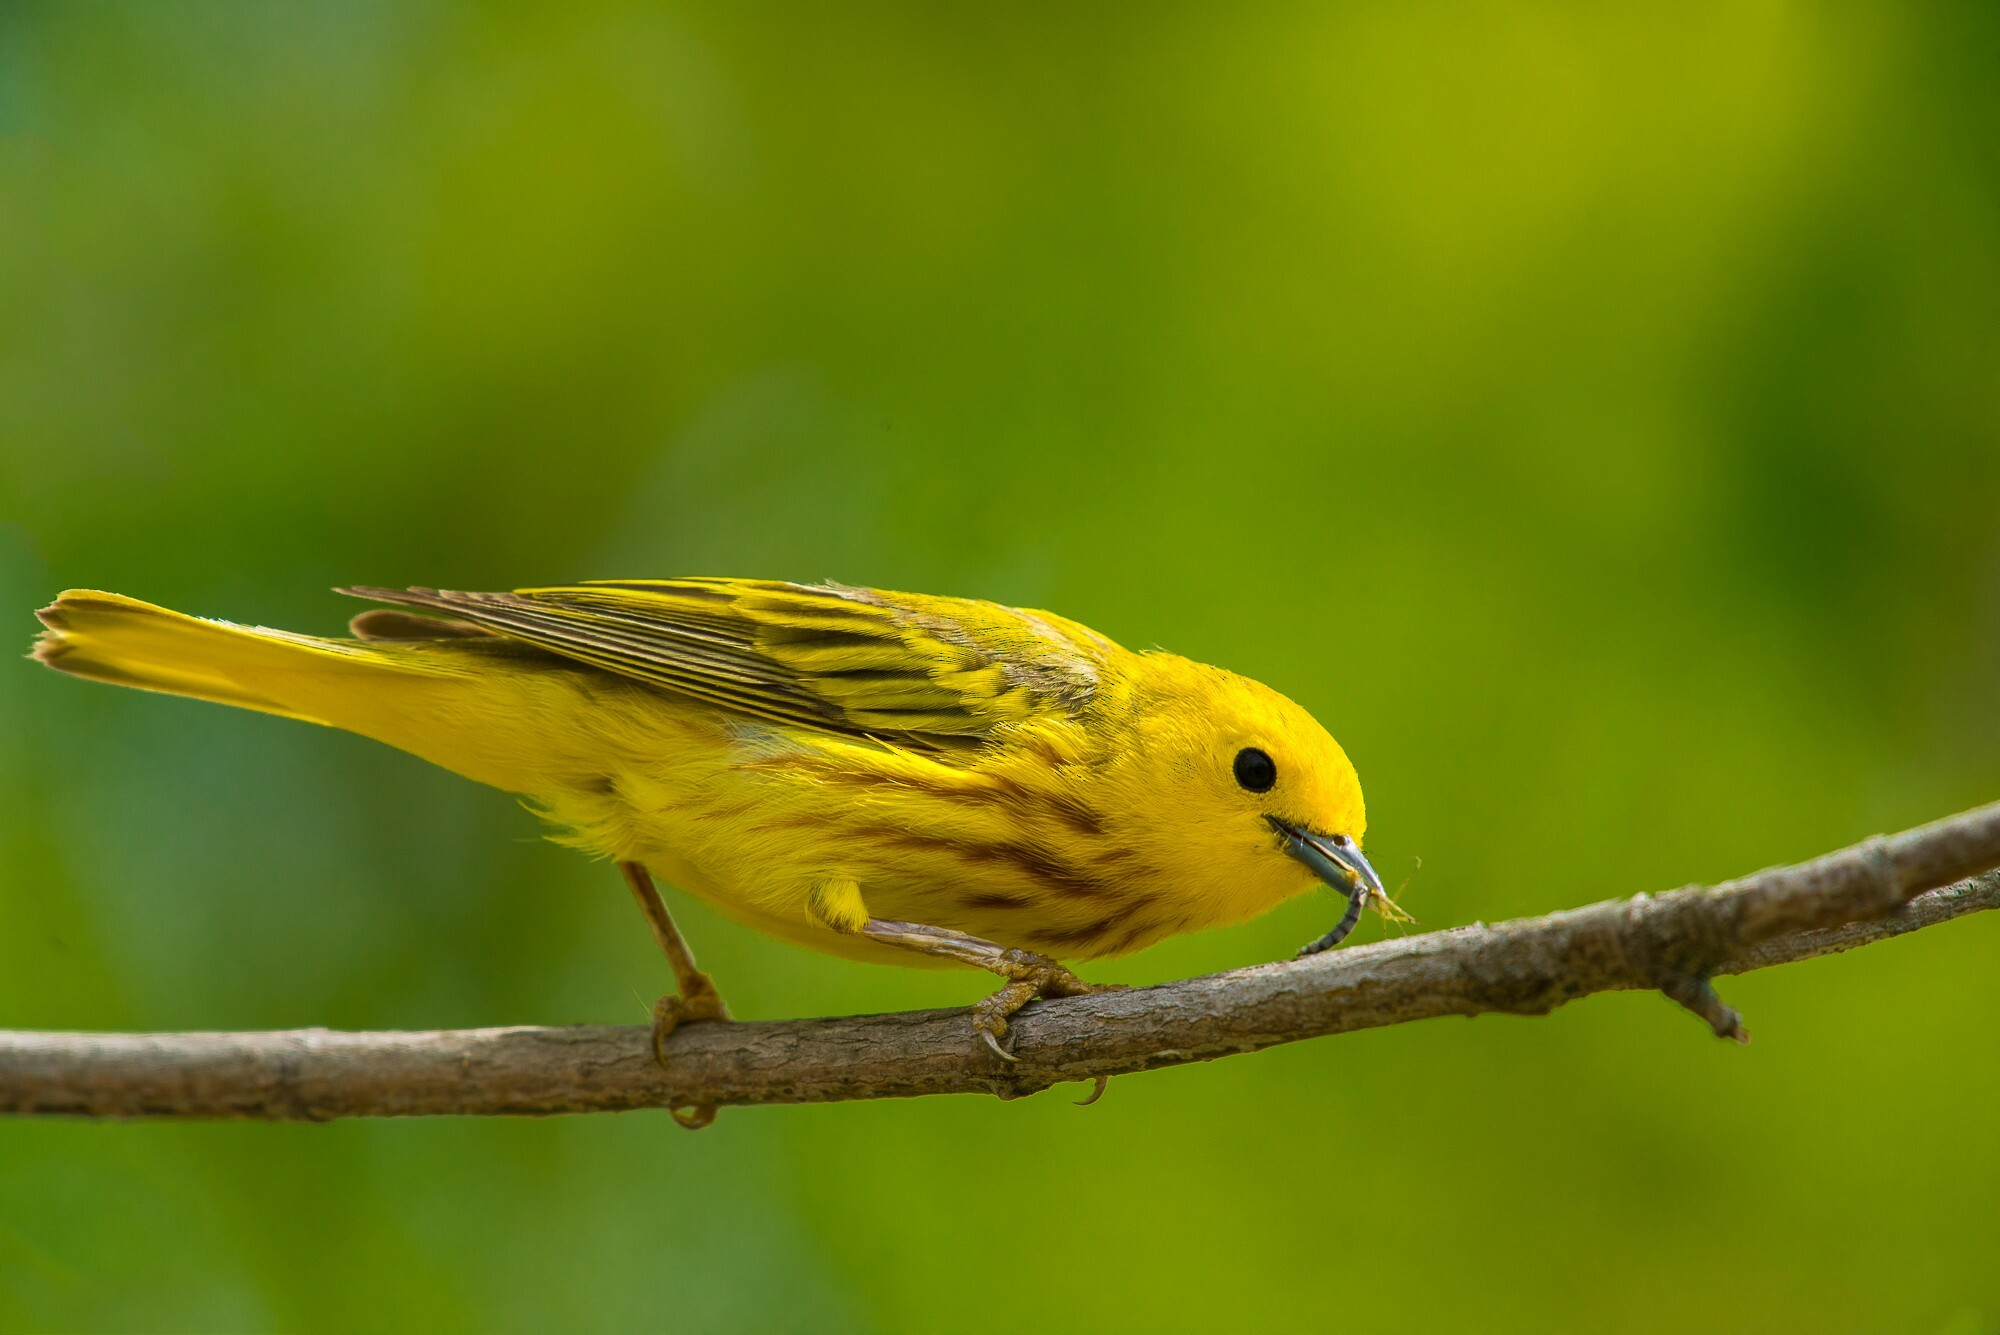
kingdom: Animalia
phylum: Chordata
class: Aves
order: Passeriformes
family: Parulidae
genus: Setophaga
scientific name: Setophaga petechia
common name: Yellow warbler
